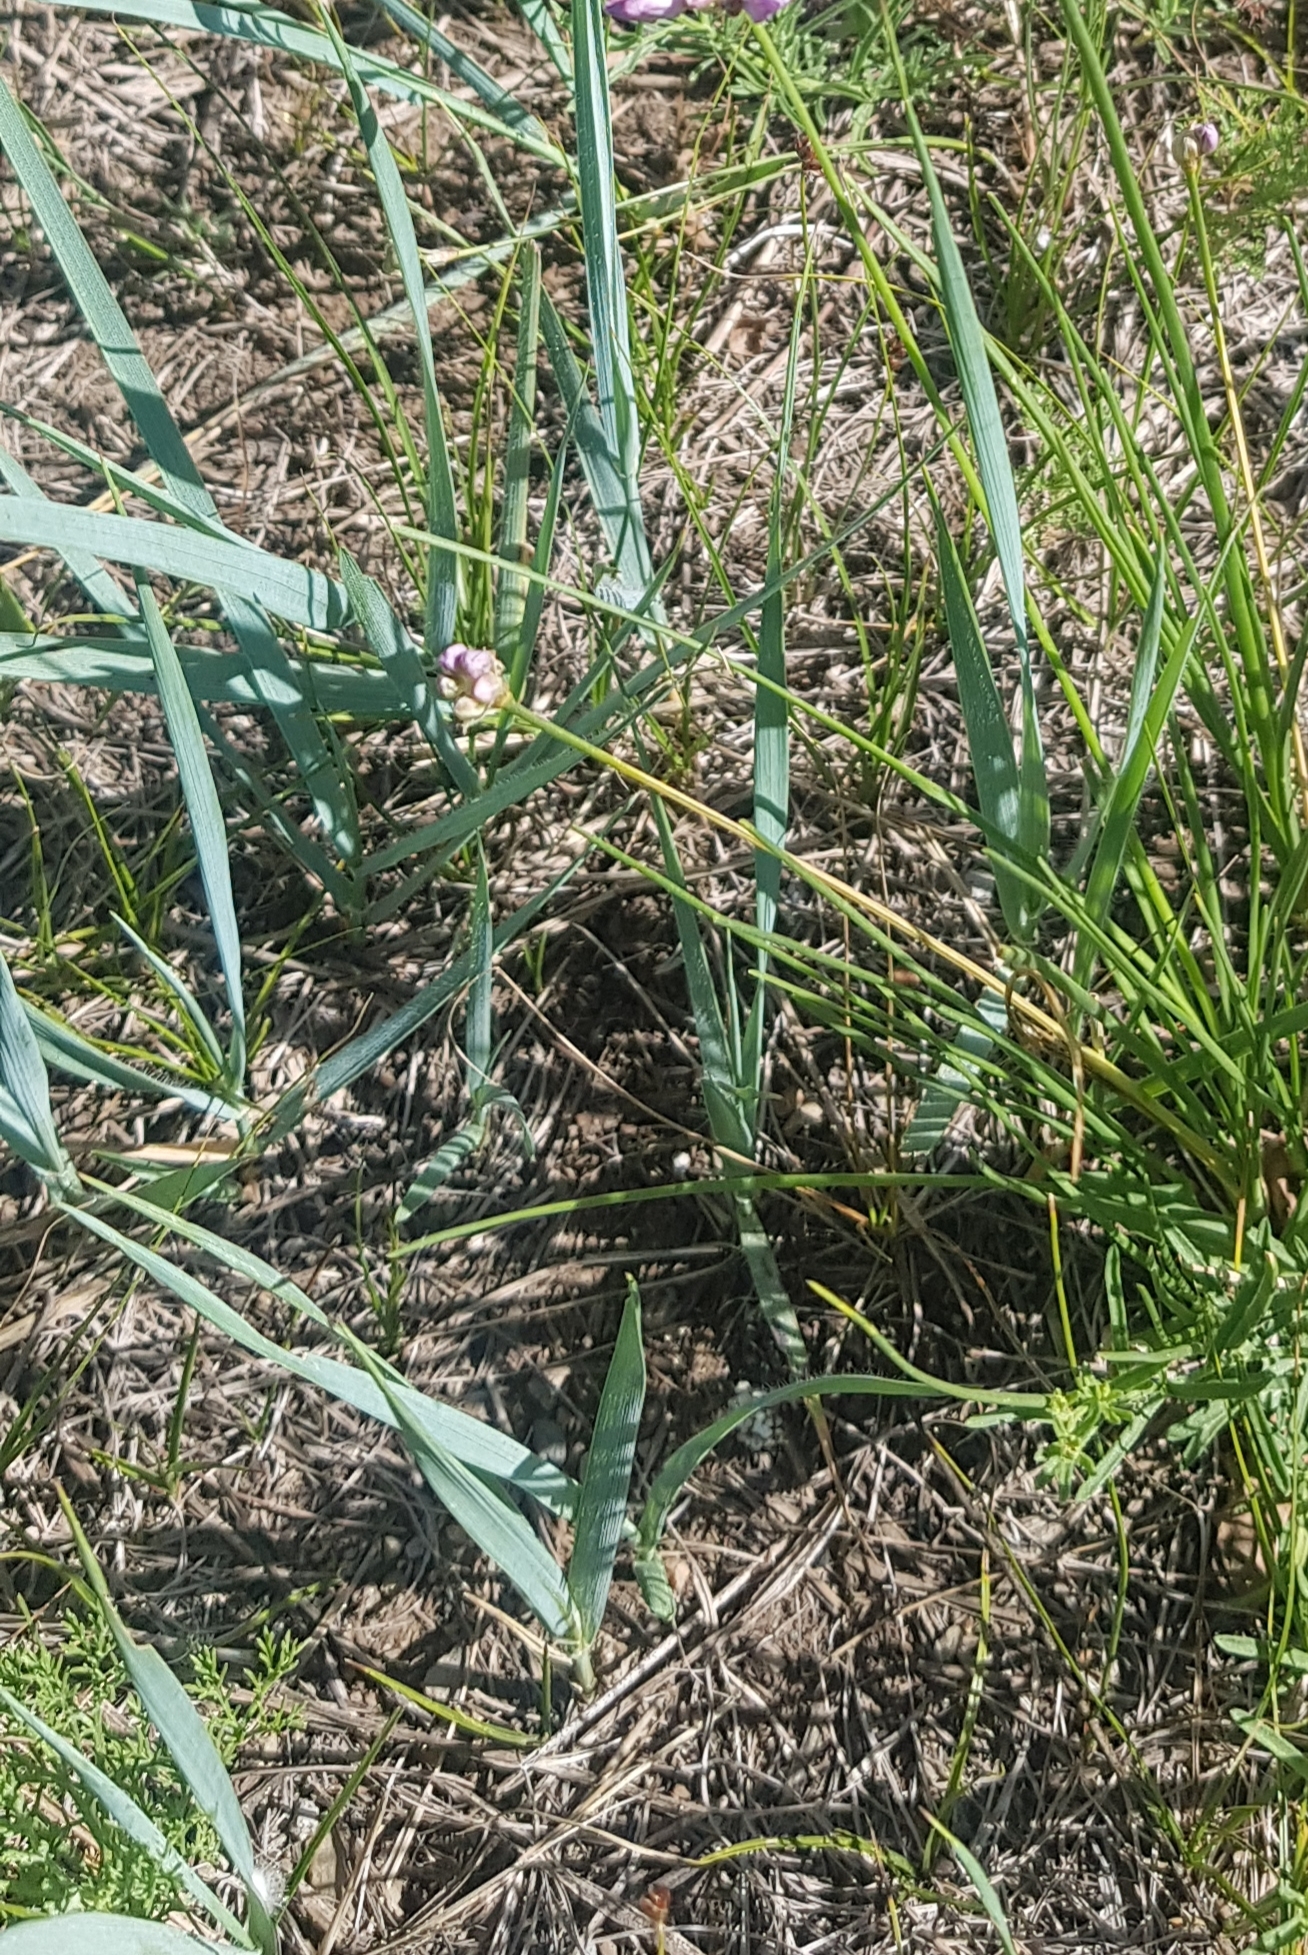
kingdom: Plantae
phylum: Tracheophyta
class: Liliopsida
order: Poales
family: Poaceae
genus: Leymus
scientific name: Leymus chinensis
